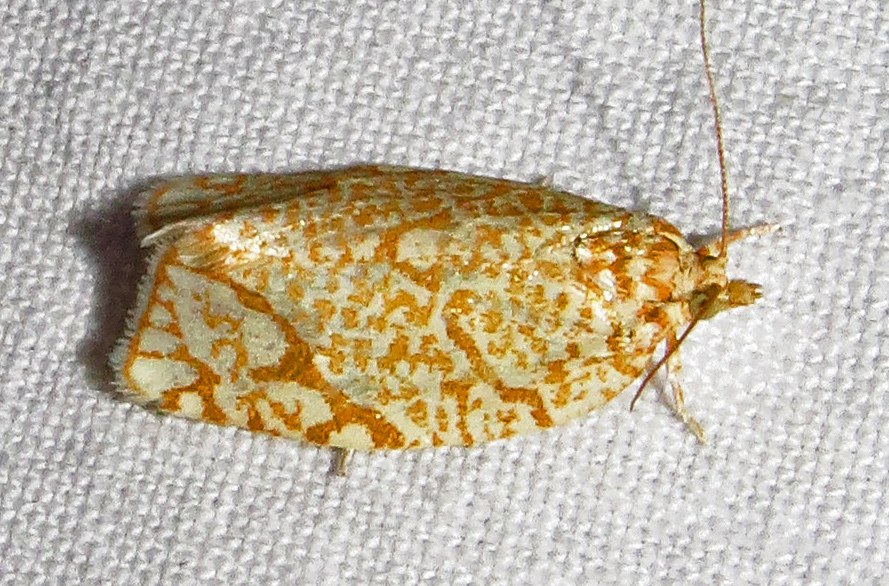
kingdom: Animalia
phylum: Arthropoda
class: Insecta
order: Lepidoptera
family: Tortricidae
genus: Argyrotaenia
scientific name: Argyrotaenia quercifoliana
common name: Yellow-winged oak leafroller moth
